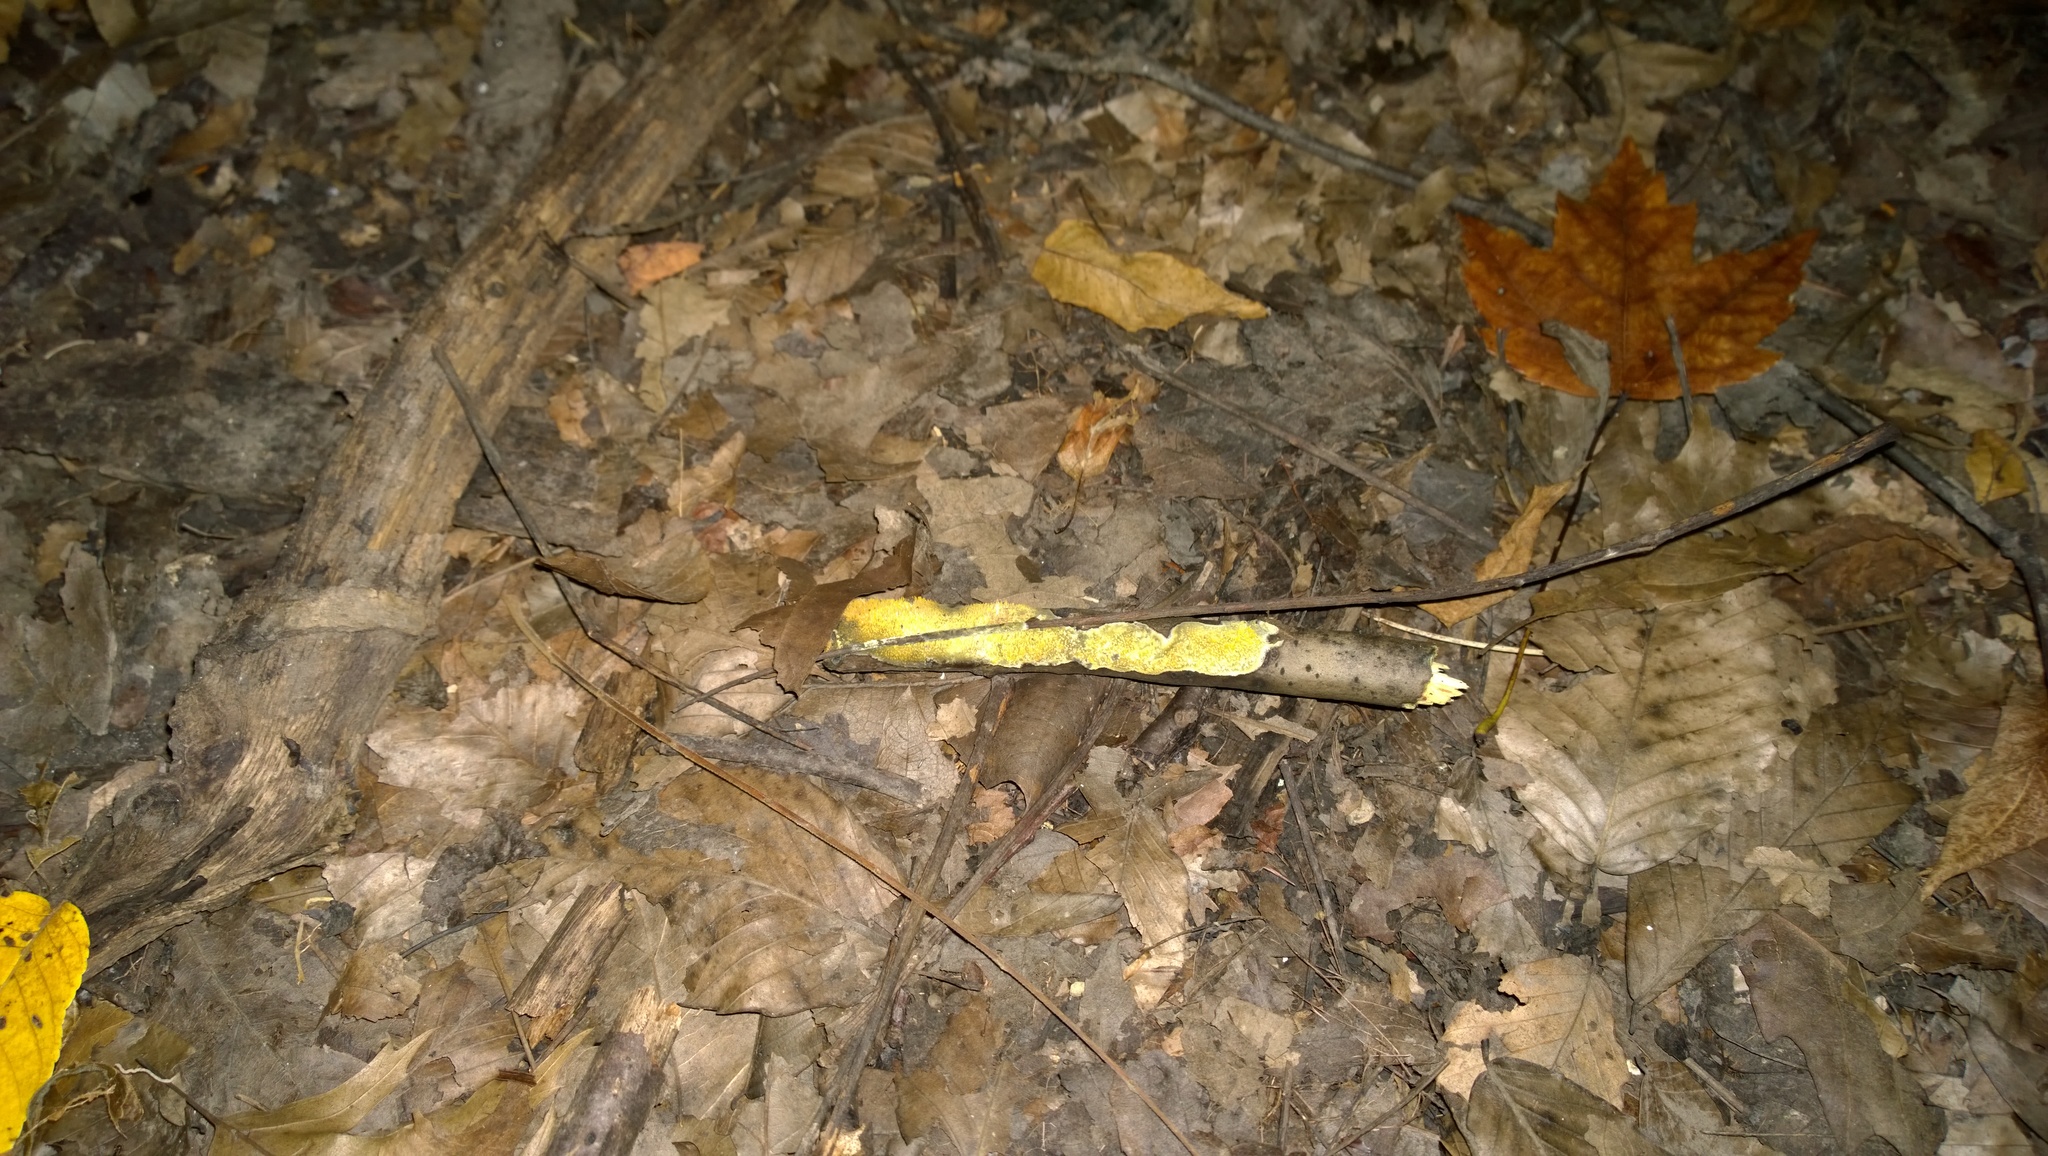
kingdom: Fungi
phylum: Basidiomycota
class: Agaricomycetes
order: Polyporales
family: Meruliaceae
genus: Mycoacia
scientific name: Mycoacia uda
